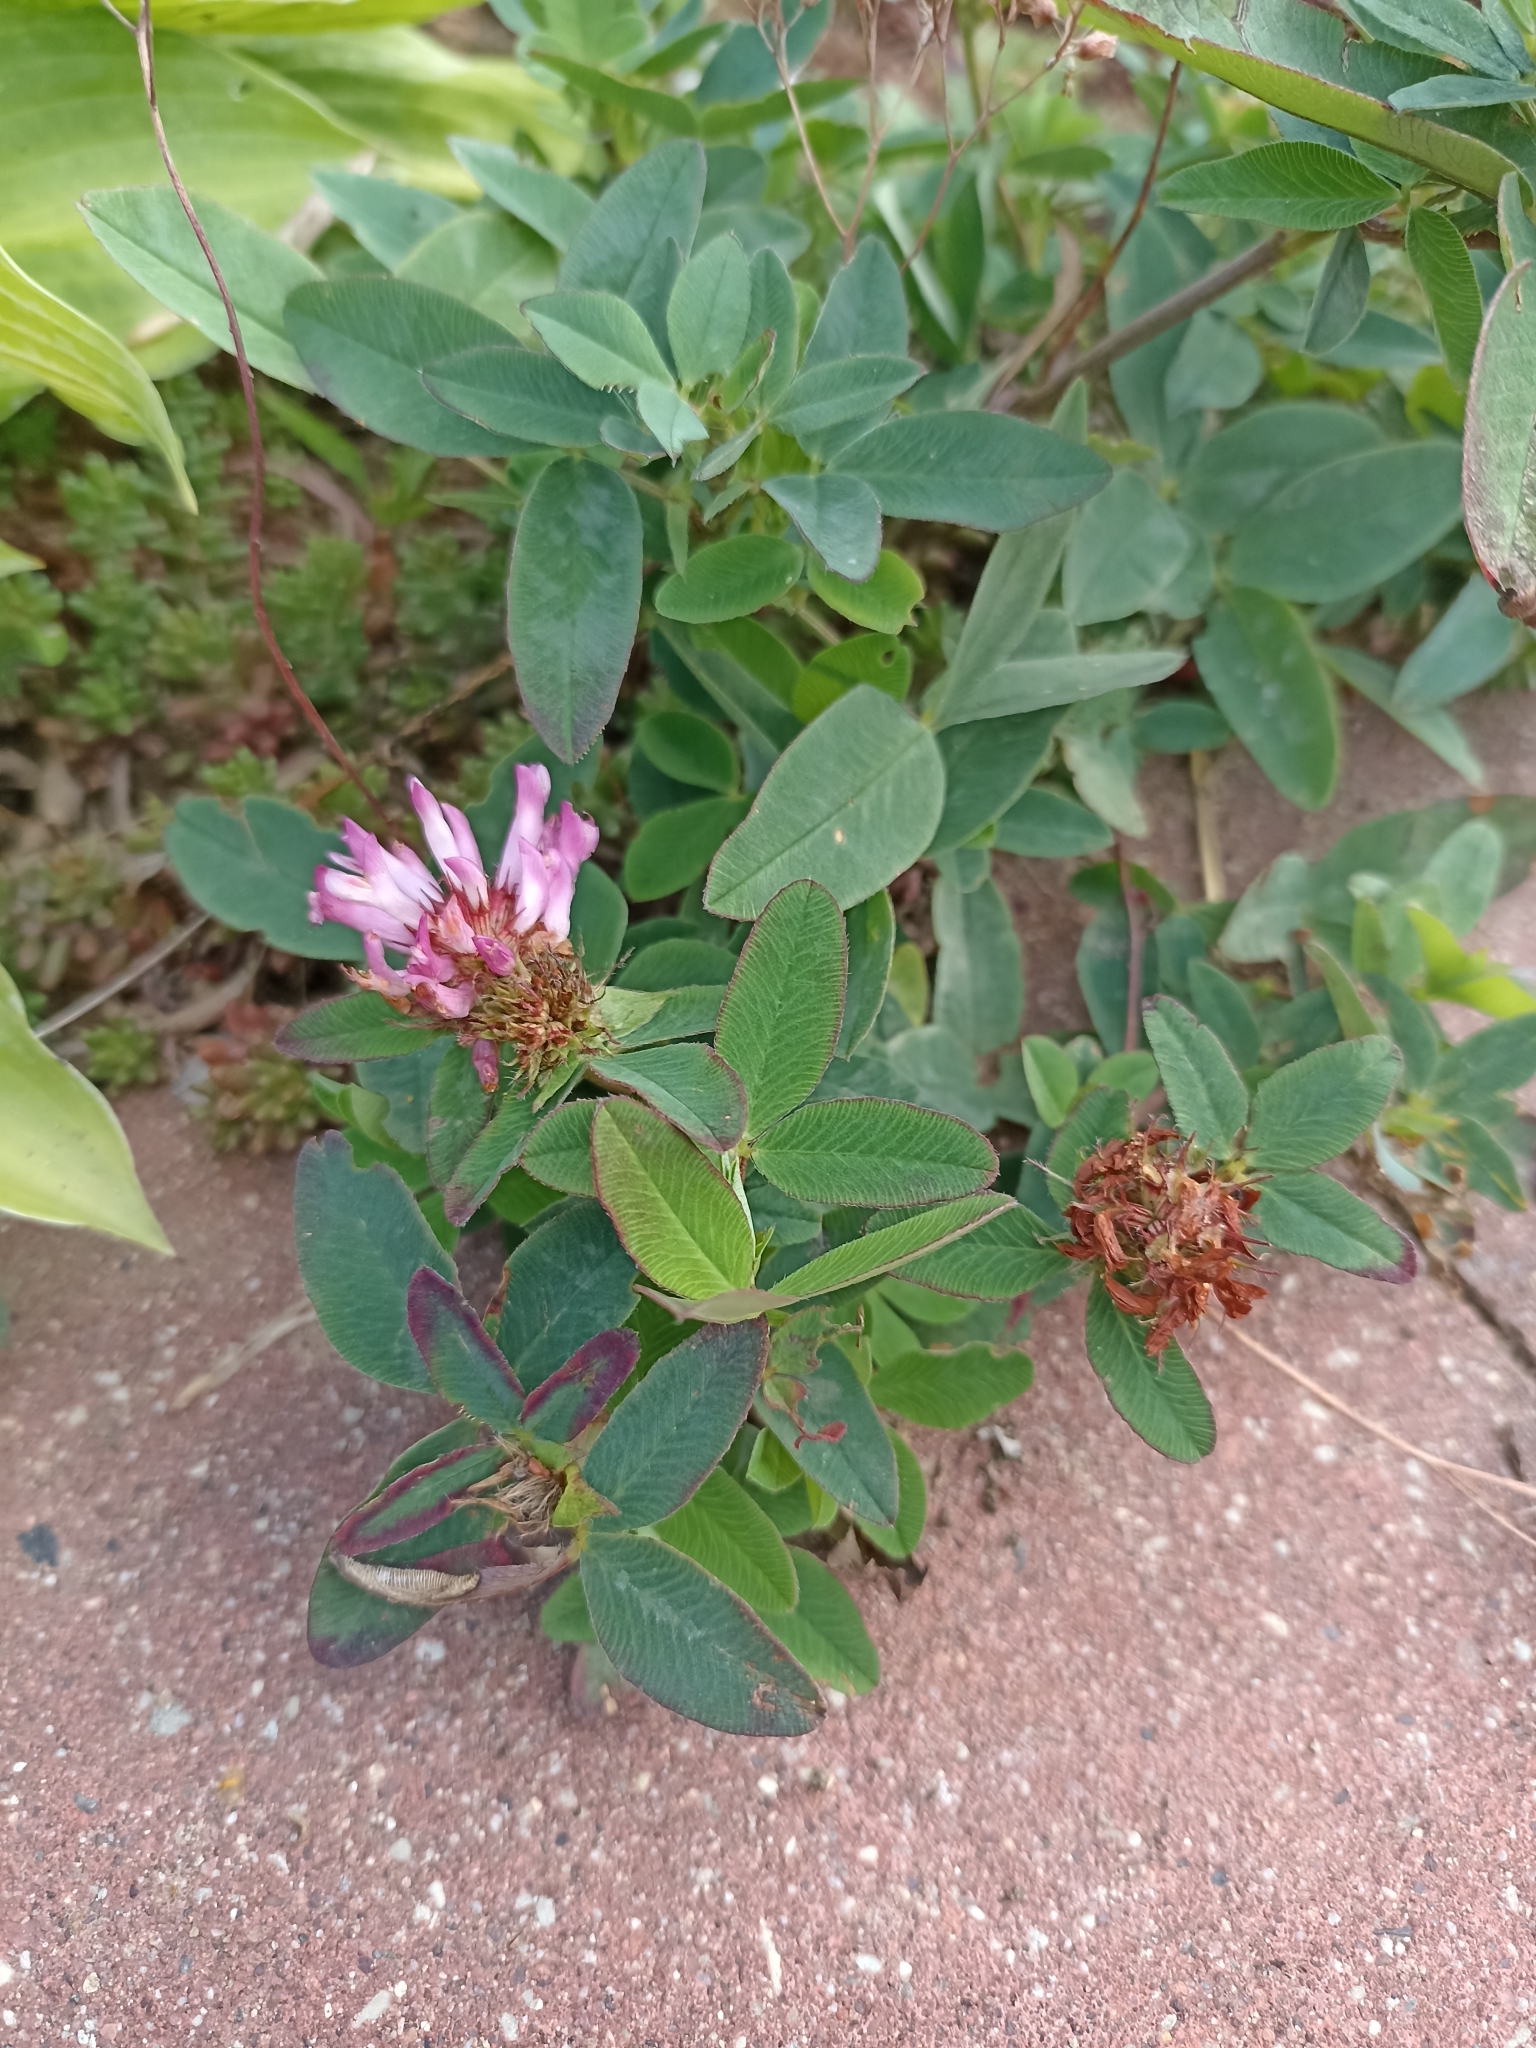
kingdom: Plantae
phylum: Tracheophyta
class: Magnoliopsida
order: Fabales
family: Fabaceae
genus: Trifolium
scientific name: Trifolium medium
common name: Zigzag clover
